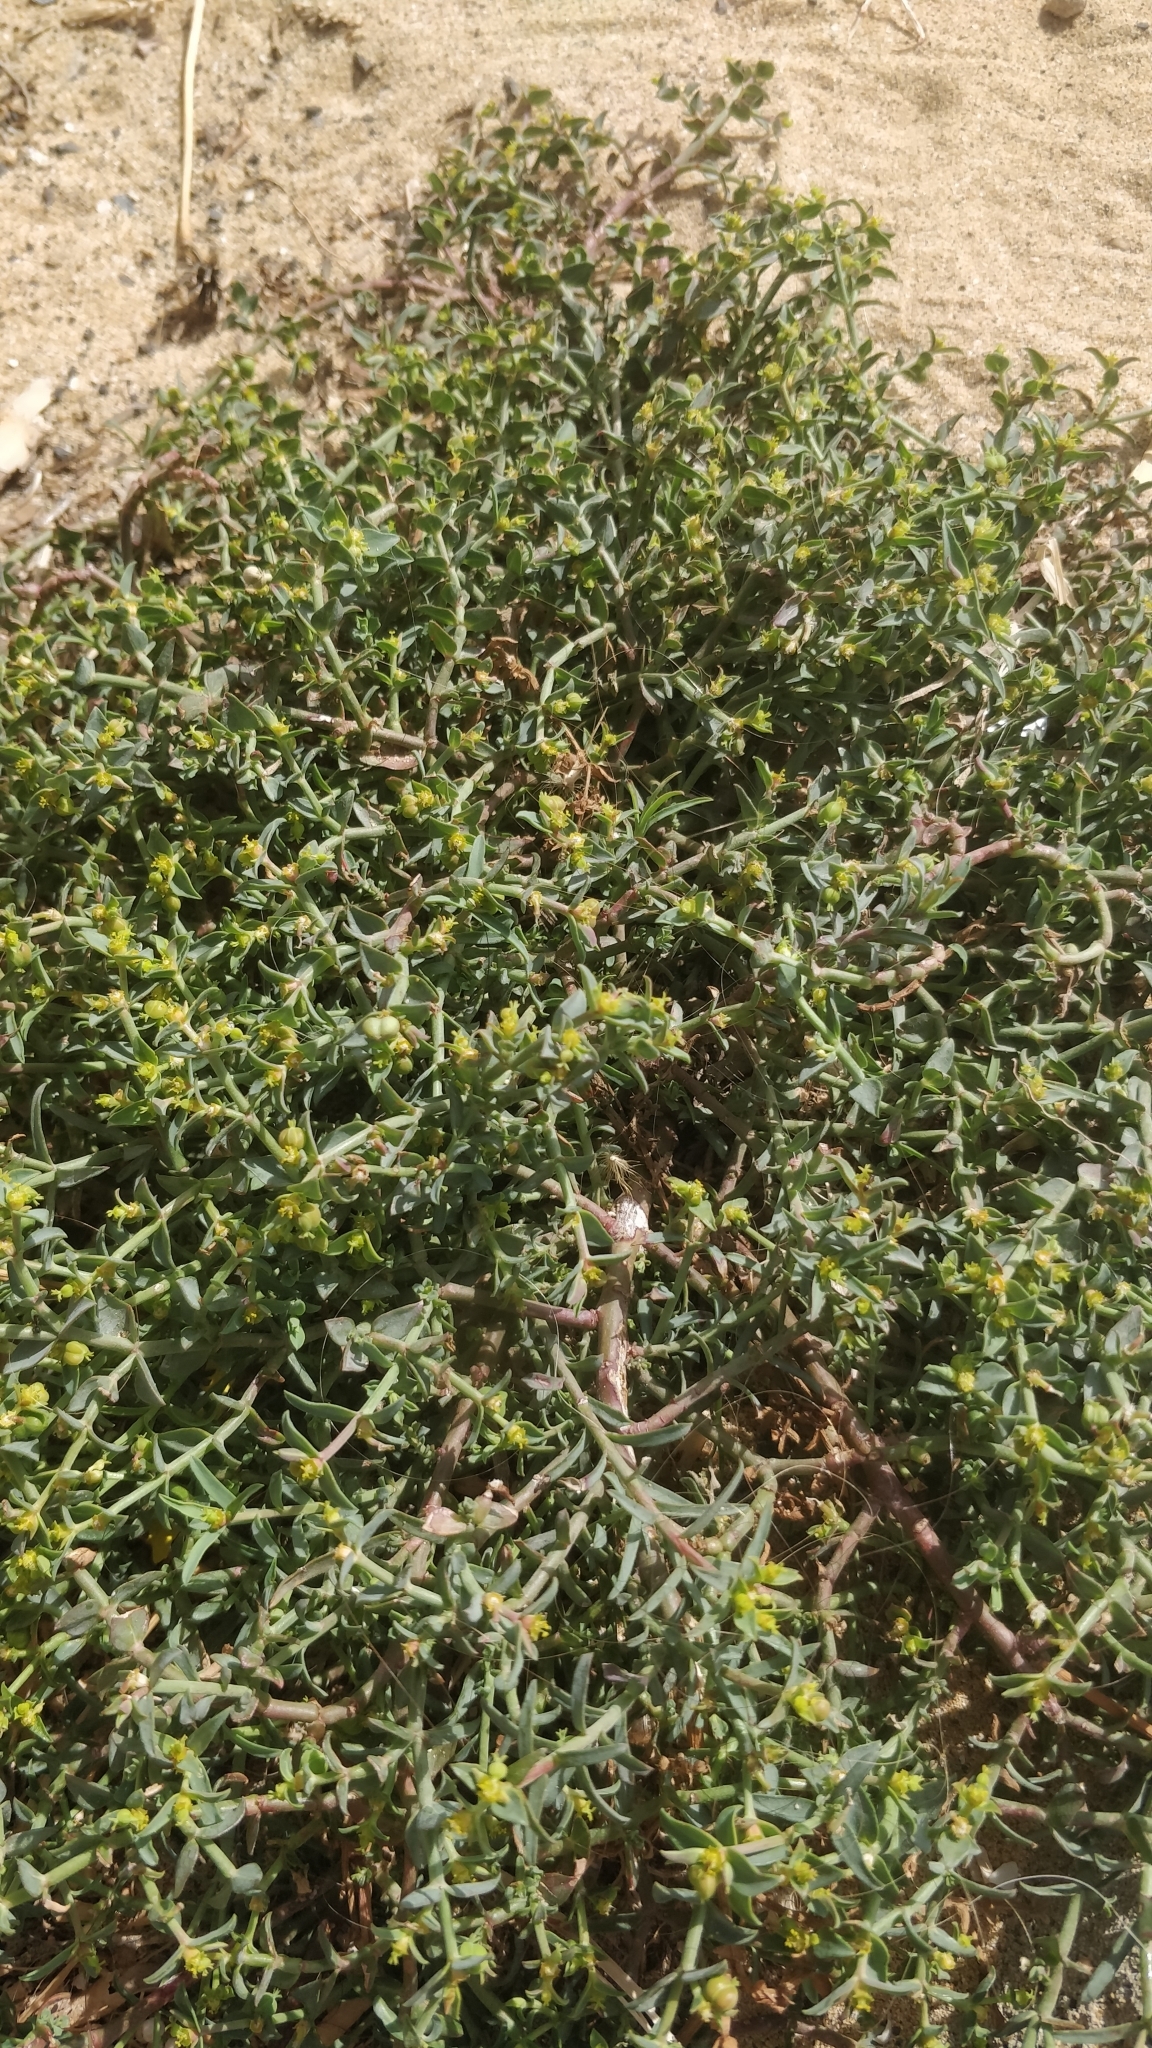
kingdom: Plantae
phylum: Tracheophyta
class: Magnoliopsida
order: Malpighiales
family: Euphorbiaceae
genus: Euphorbia
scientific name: Euphorbia terracina
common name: Geraldton carnation weed
